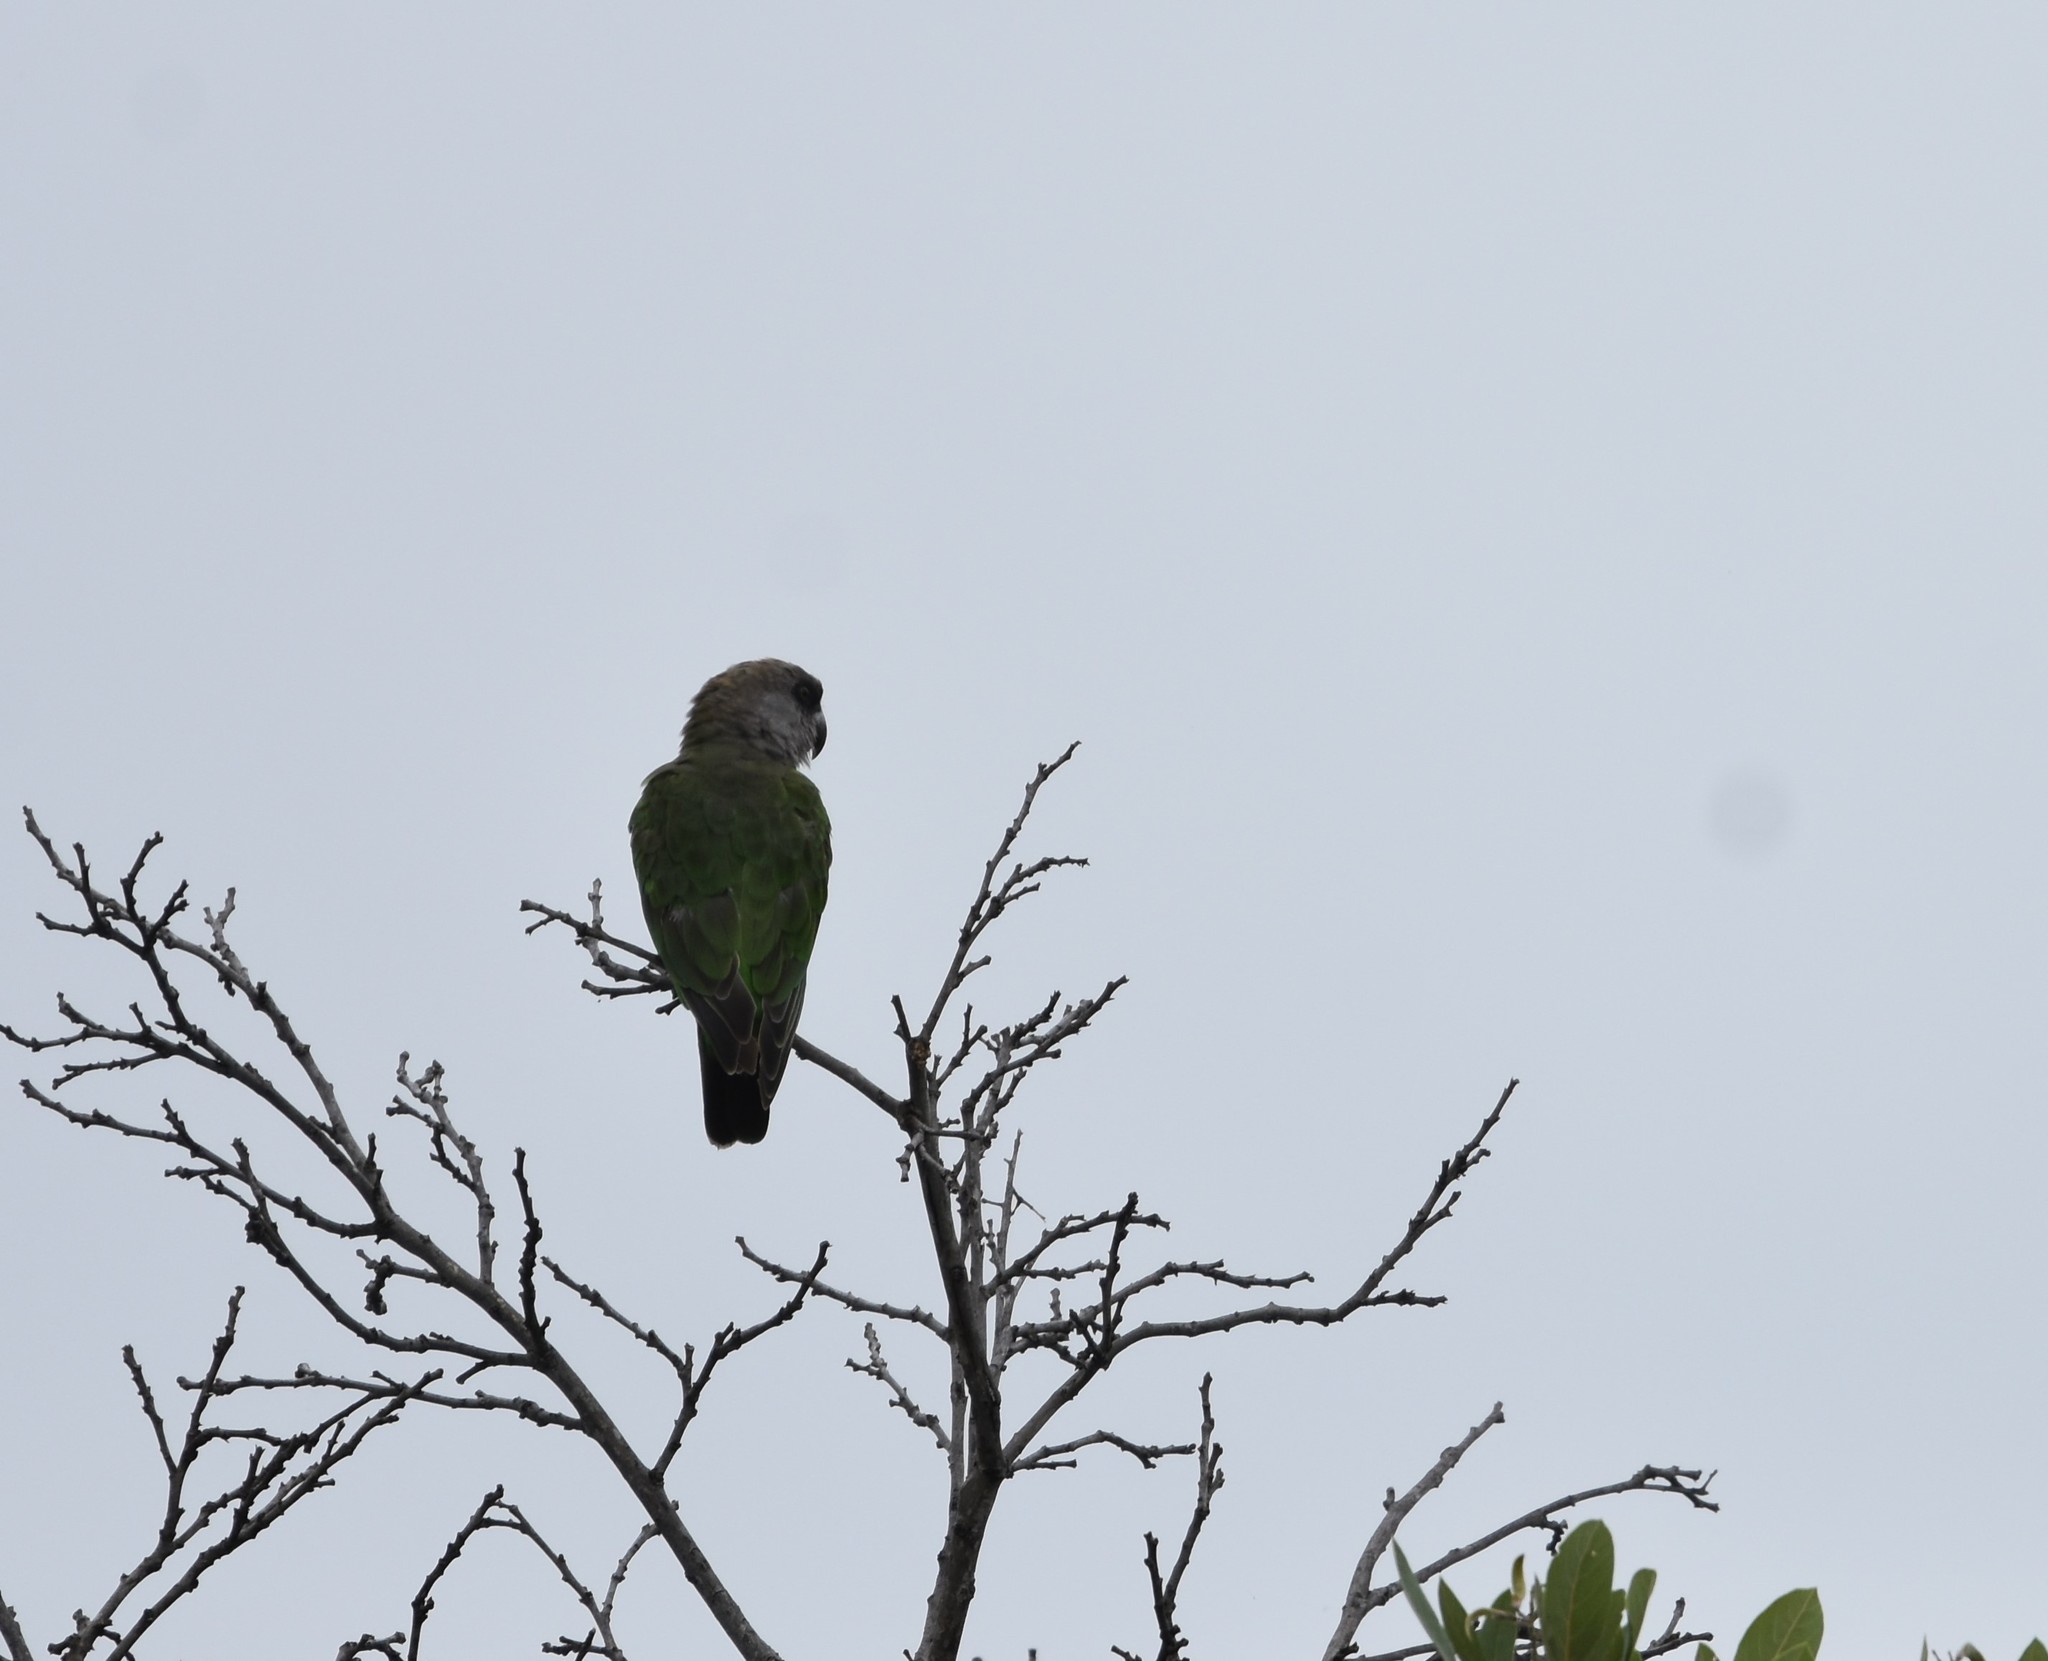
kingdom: Animalia
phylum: Chordata
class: Aves
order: Psittaciformes
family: Psittacidae
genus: Poicephalus
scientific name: Poicephalus cryptoxanthus
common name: Brown-headed parrot
